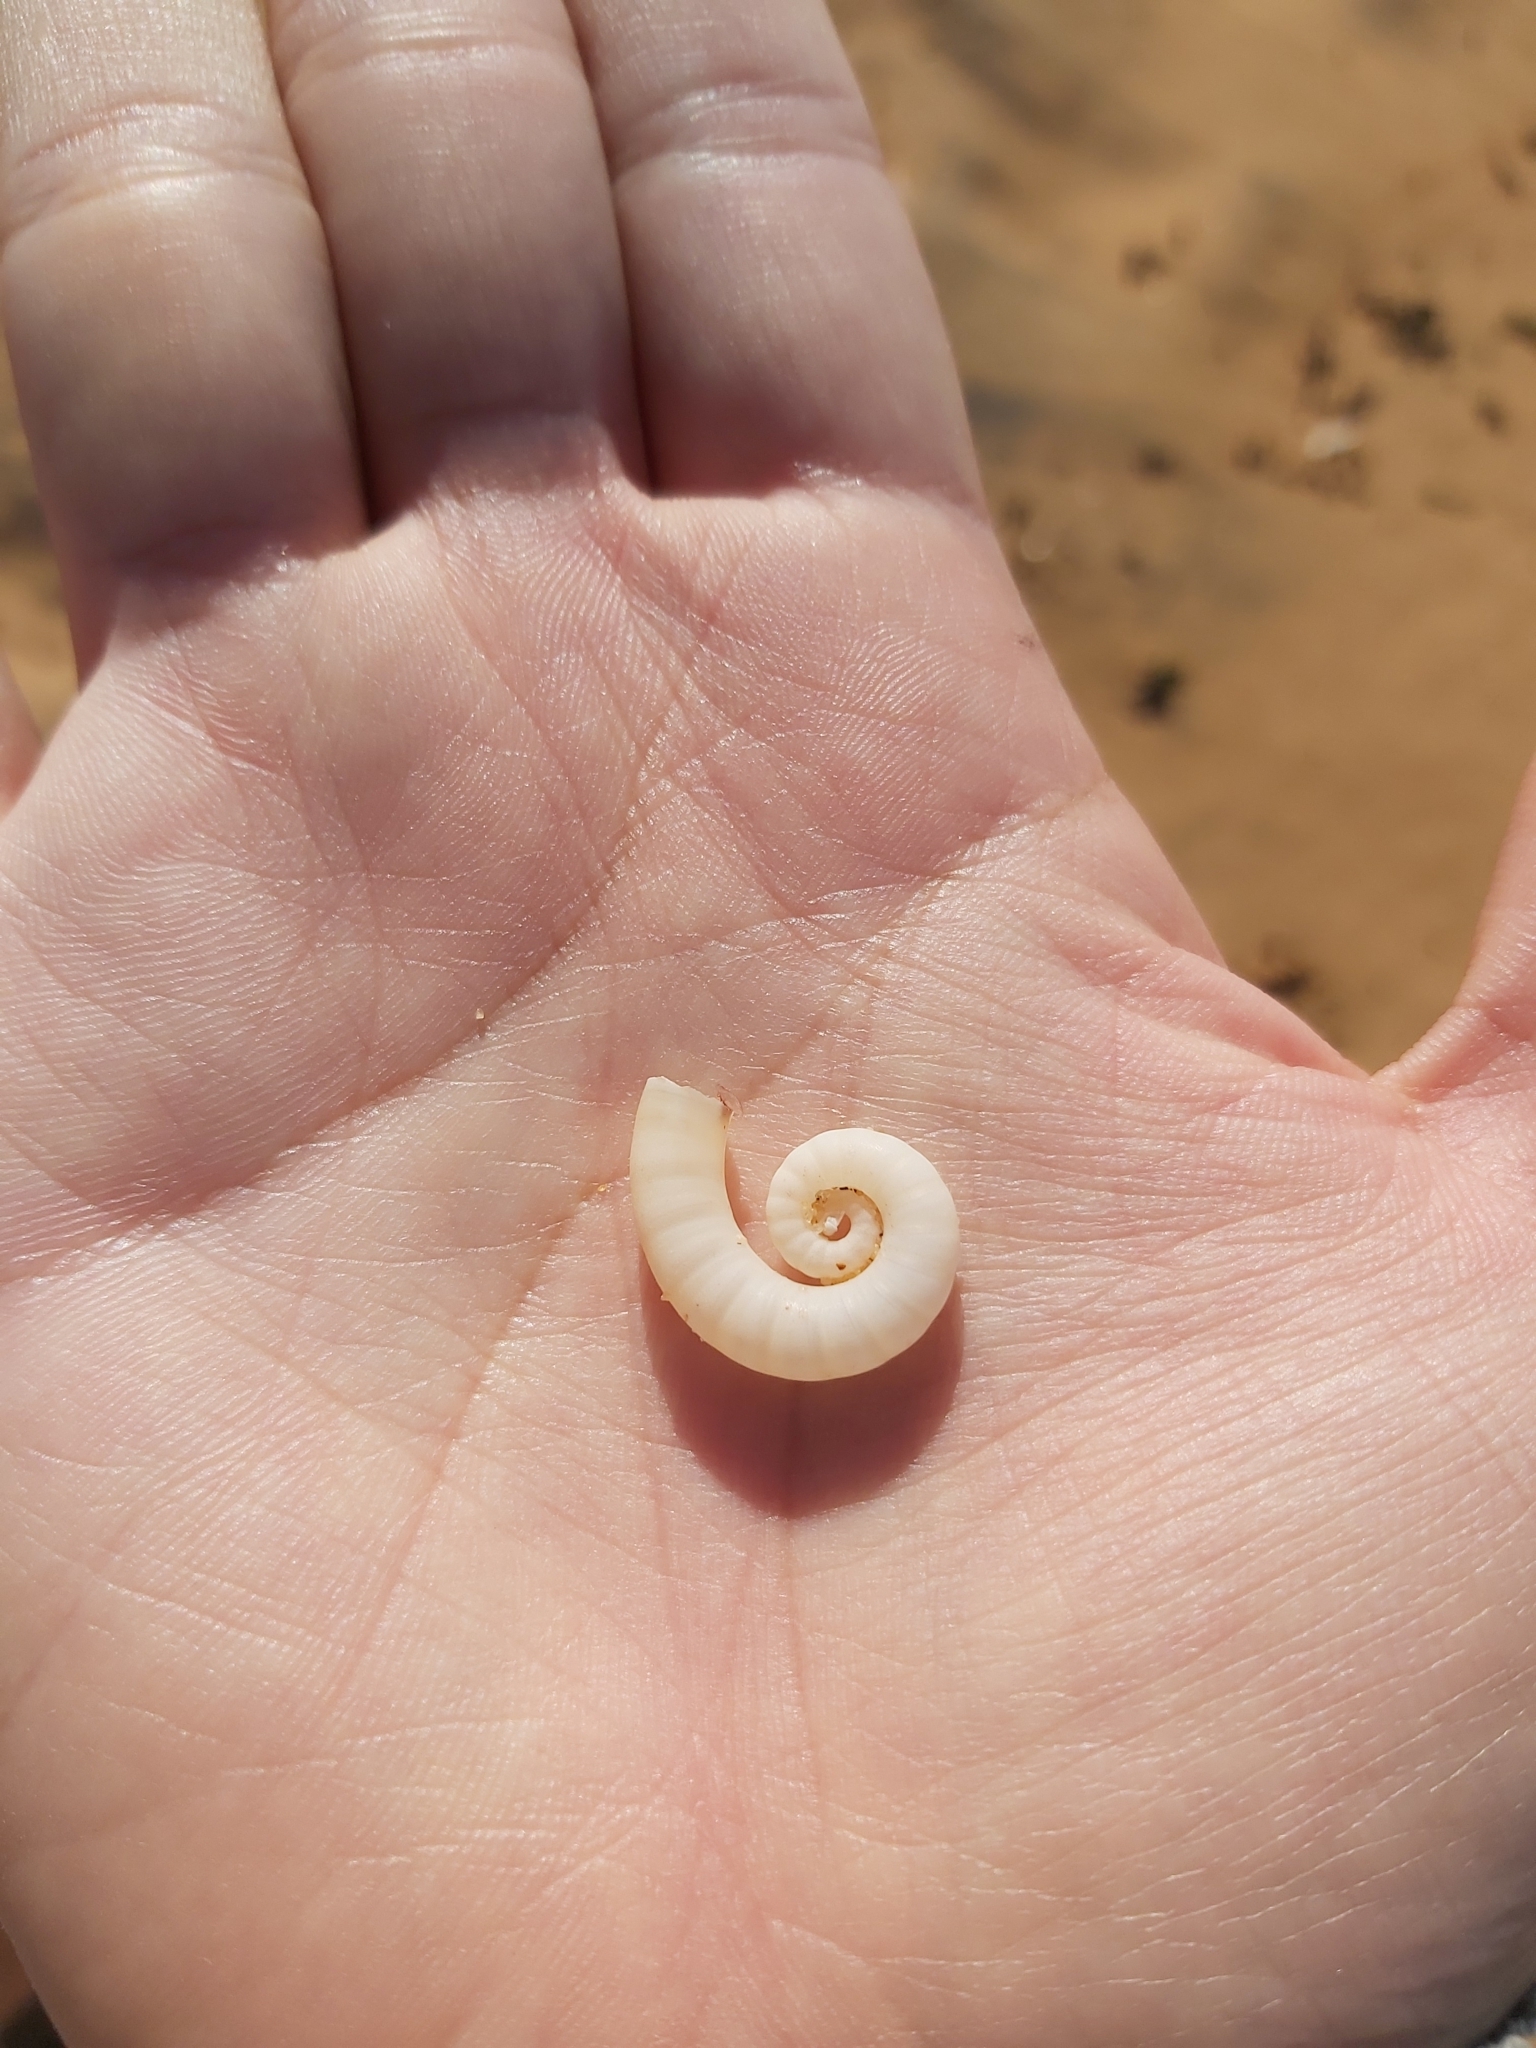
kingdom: Animalia
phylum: Mollusca
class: Cephalopoda
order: Spirulida
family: Spirulidae
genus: Spirula
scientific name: Spirula spirula
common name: Ram's horn squid
